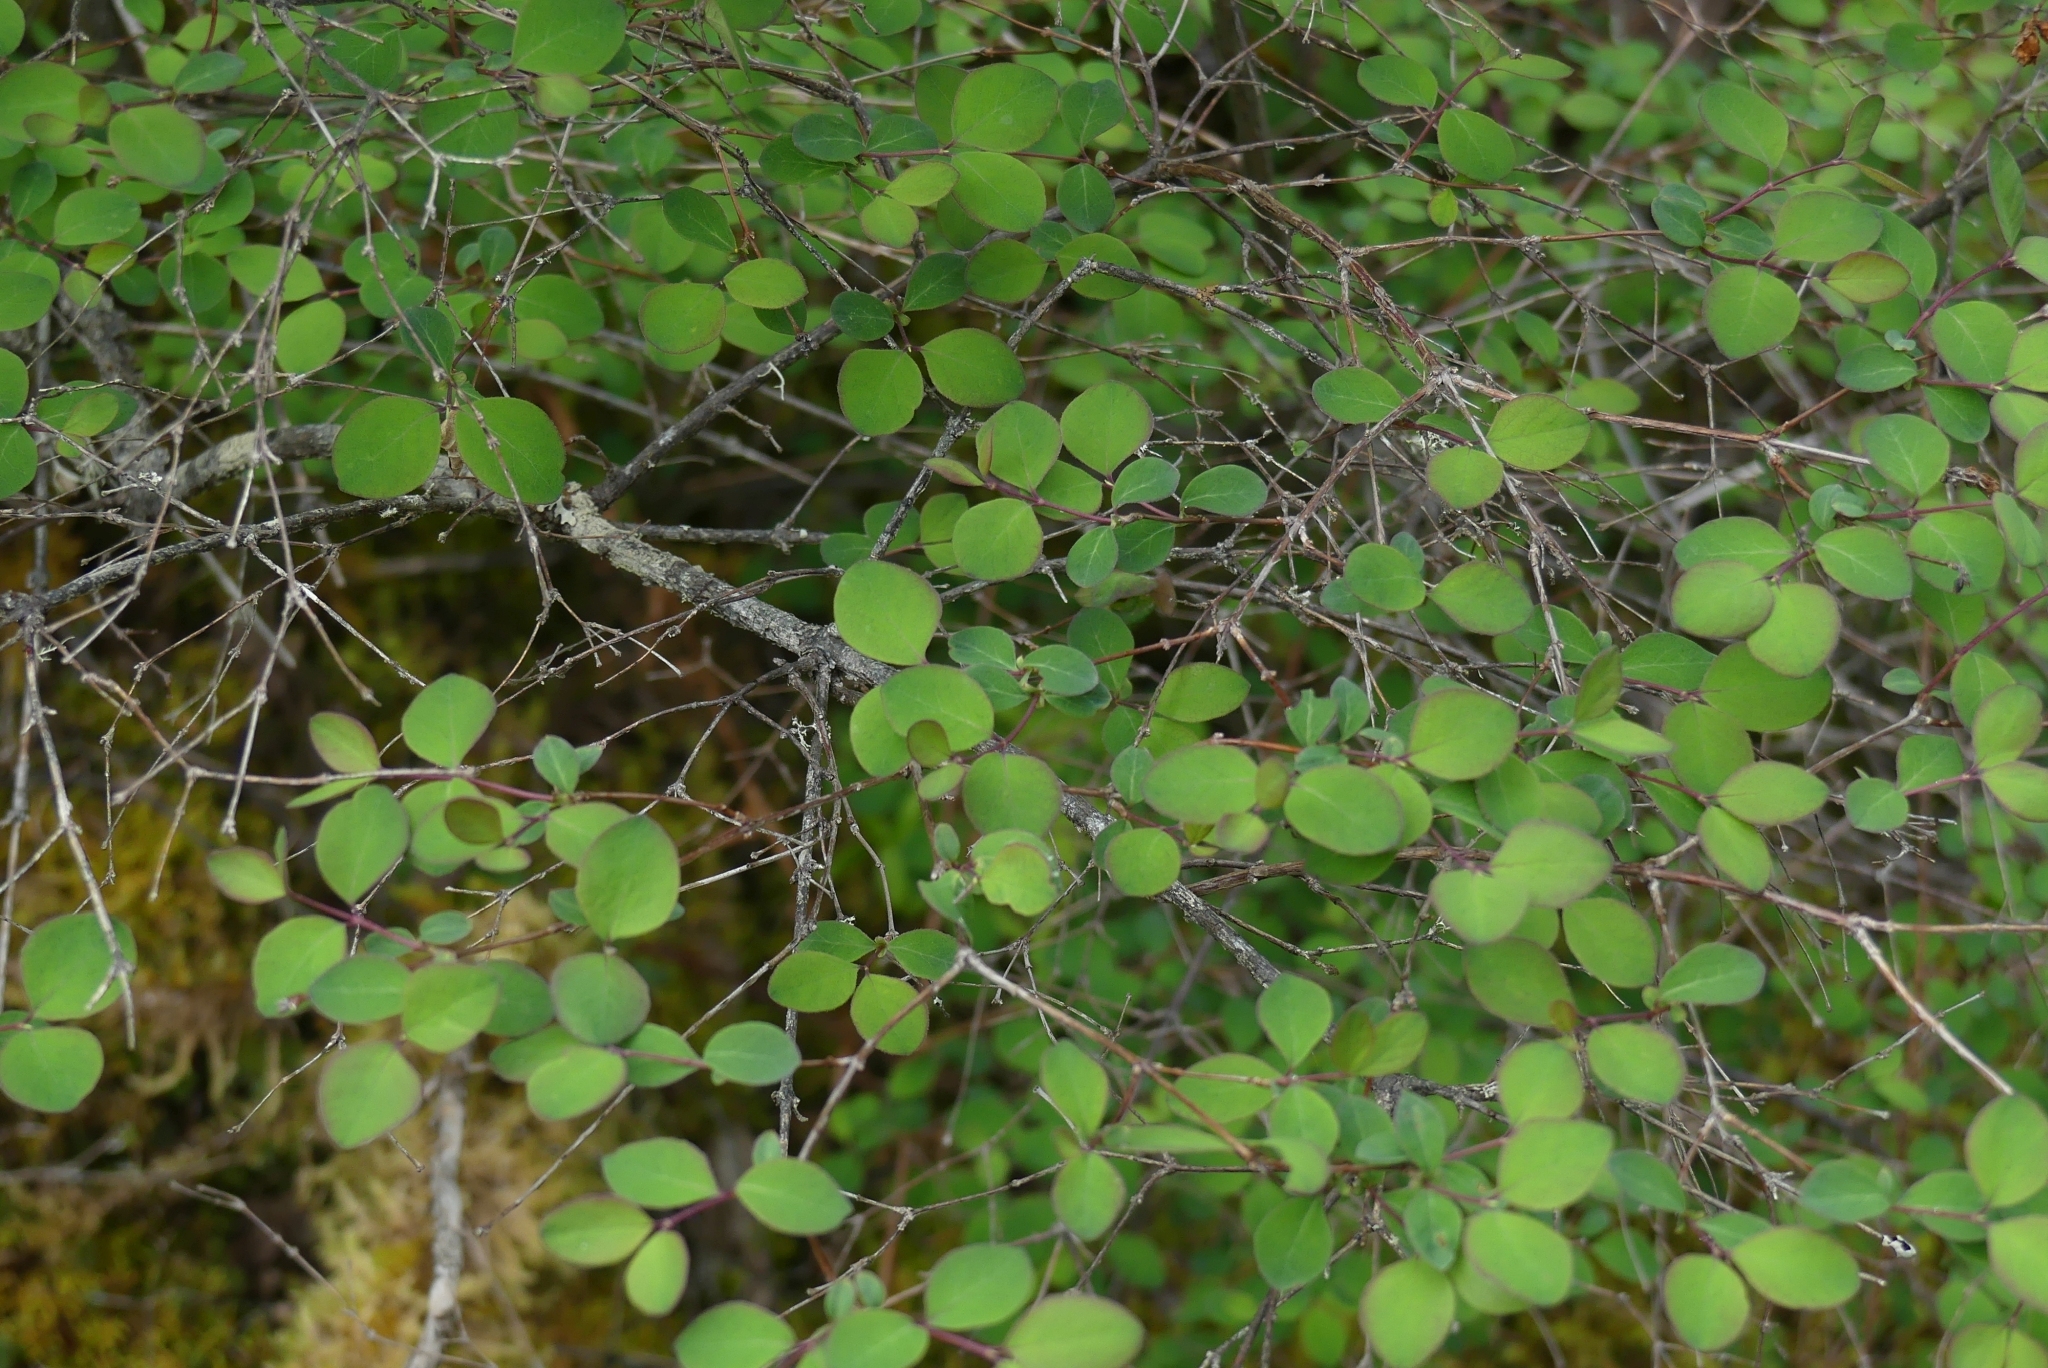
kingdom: Plantae
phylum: Tracheophyta
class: Magnoliopsida
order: Dipsacales
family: Caprifoliaceae
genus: Symphoricarpos
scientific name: Symphoricarpos albus
